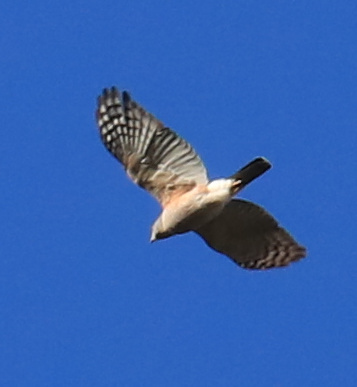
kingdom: Animalia
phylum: Chordata
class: Aves
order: Accipitriformes
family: Accipitridae
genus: Accipiter
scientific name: Accipiter tachiro
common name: African goshawk
